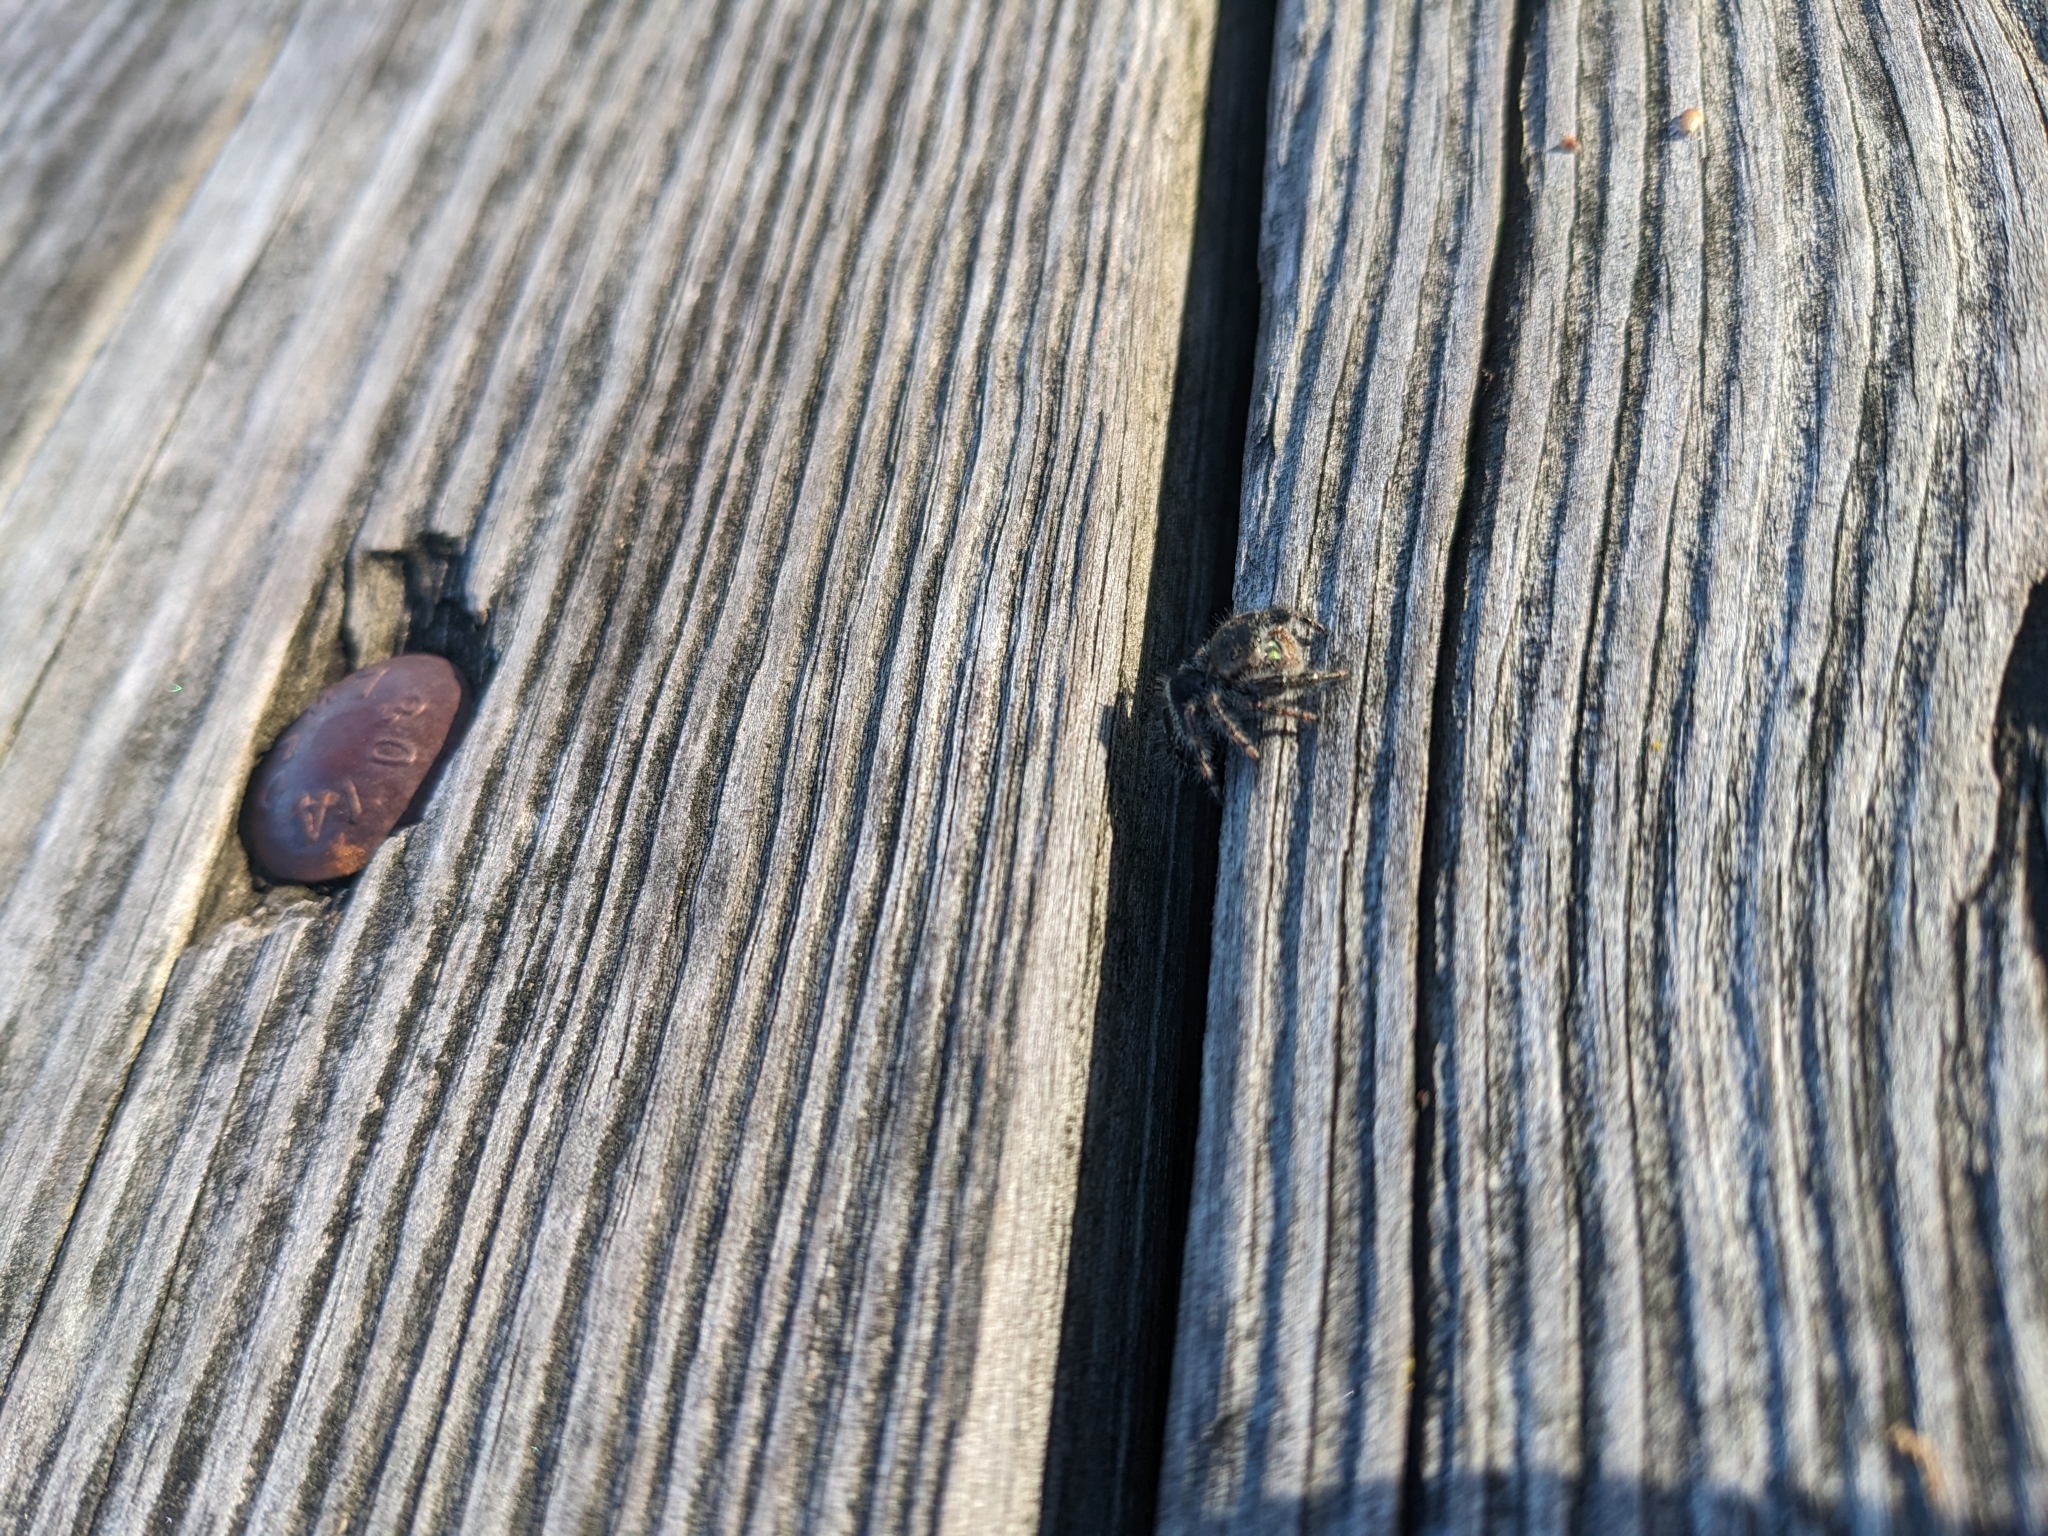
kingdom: Animalia
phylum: Arthropoda
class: Arachnida
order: Araneae
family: Salticidae
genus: Phidippus
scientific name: Phidippus audax
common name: Bold jumper
